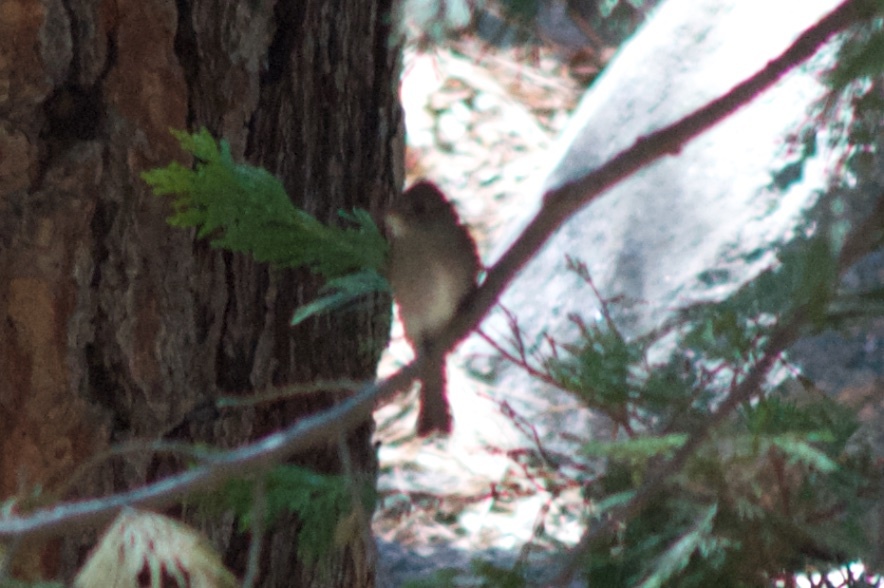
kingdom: Animalia
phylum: Chordata
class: Aves
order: Passeriformes
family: Tyrannidae
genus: Contopus
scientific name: Contopus sordidulus
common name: Western wood-pewee
